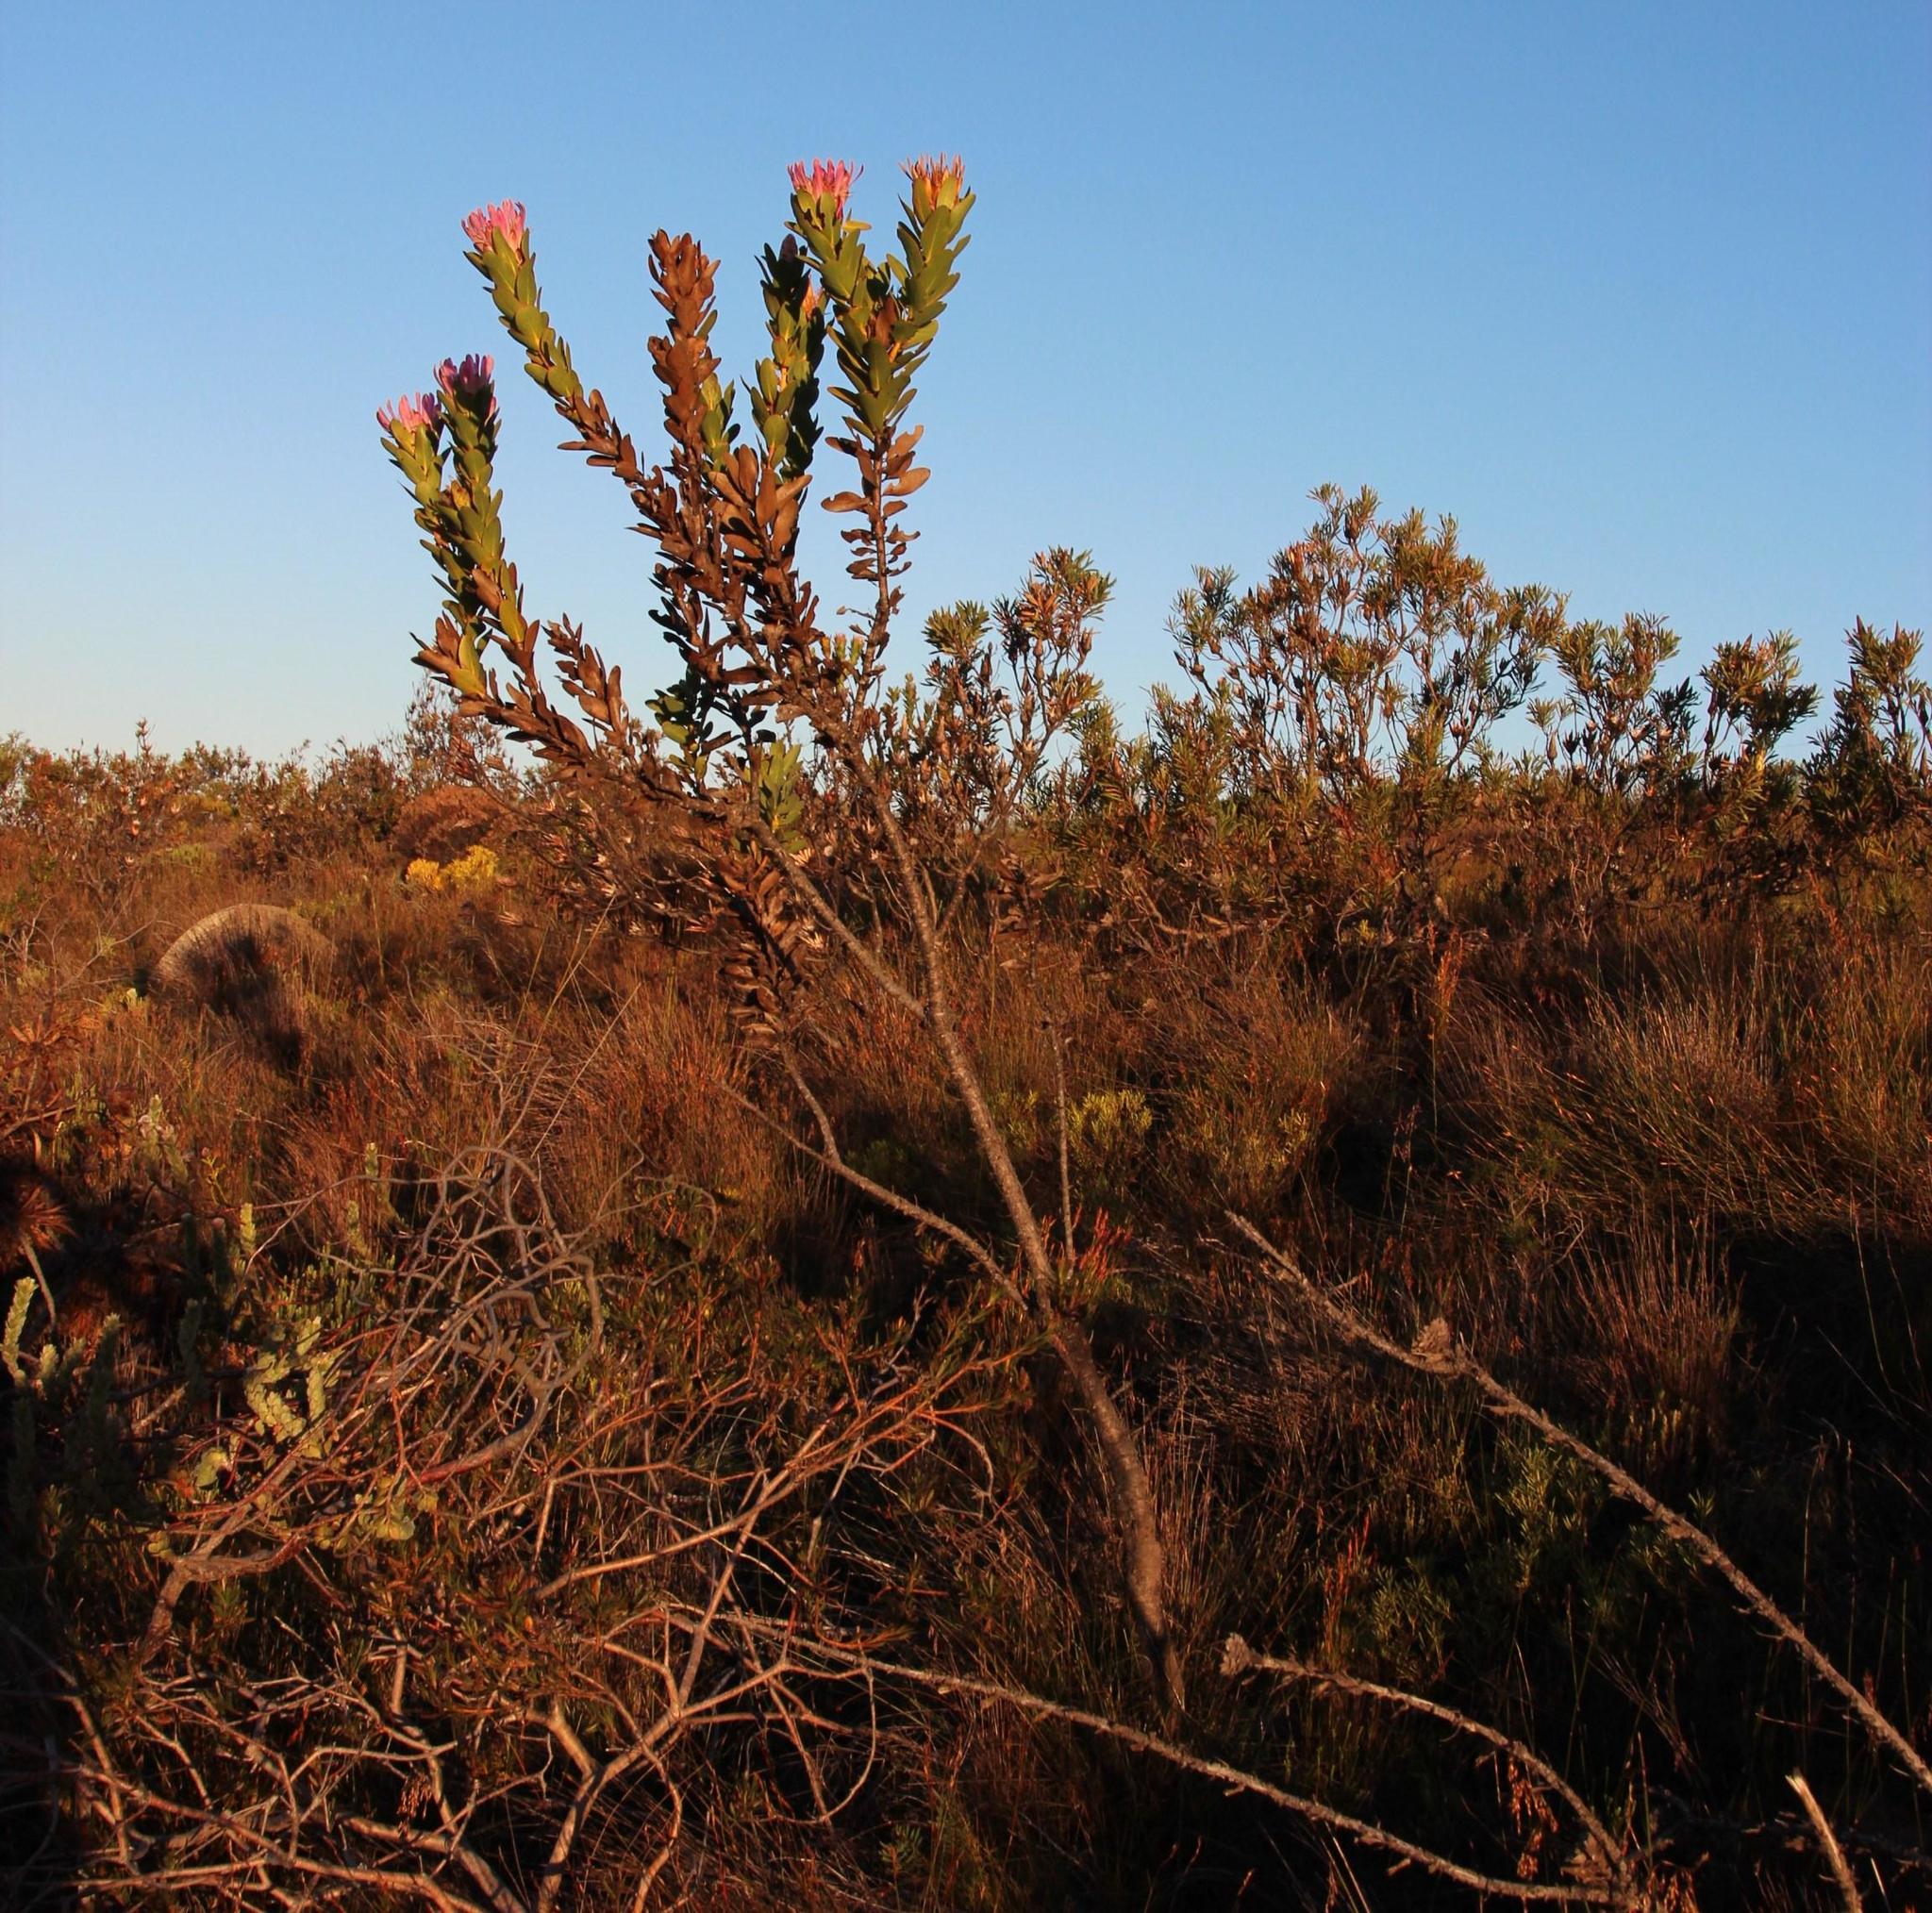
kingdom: Plantae
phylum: Tracheophyta
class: Magnoliopsida
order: Proteales
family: Proteaceae
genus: Protea
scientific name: Protea compacta
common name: Bot river protea
